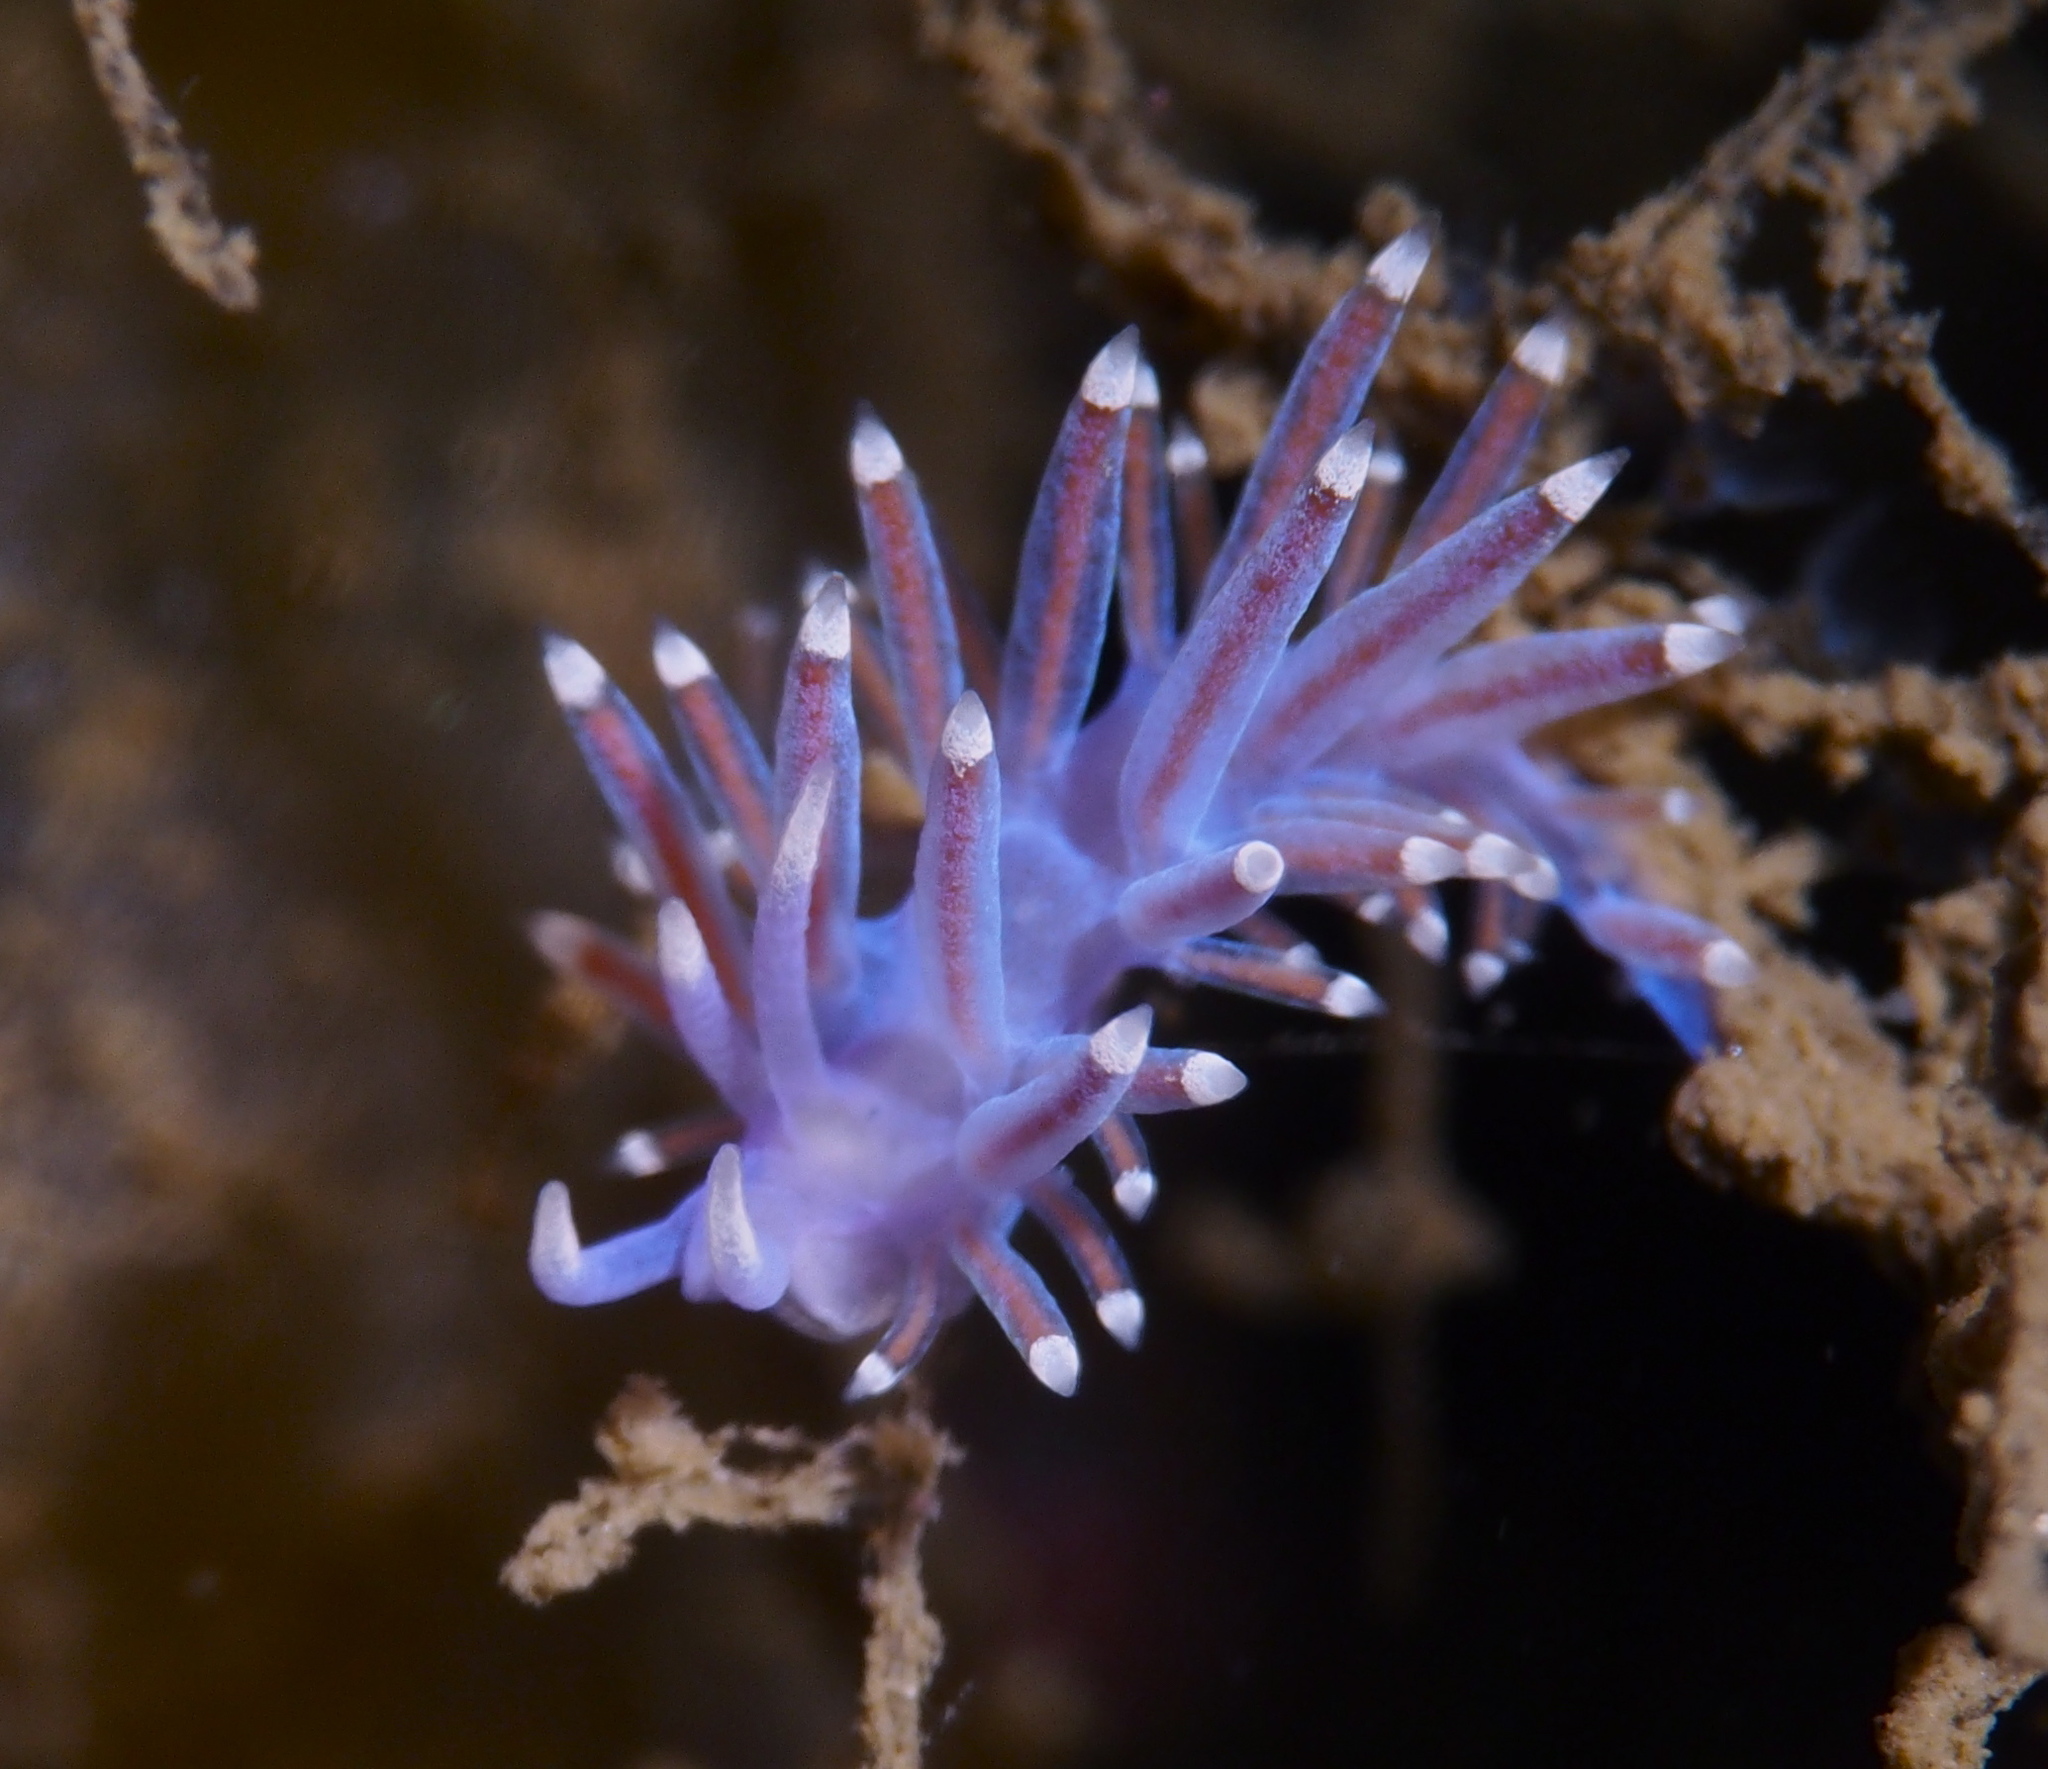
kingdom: Animalia
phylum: Mollusca
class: Gastropoda
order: Nudibranchia
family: Flabellinidae
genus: Edmundsella
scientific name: Edmundsella pedata
